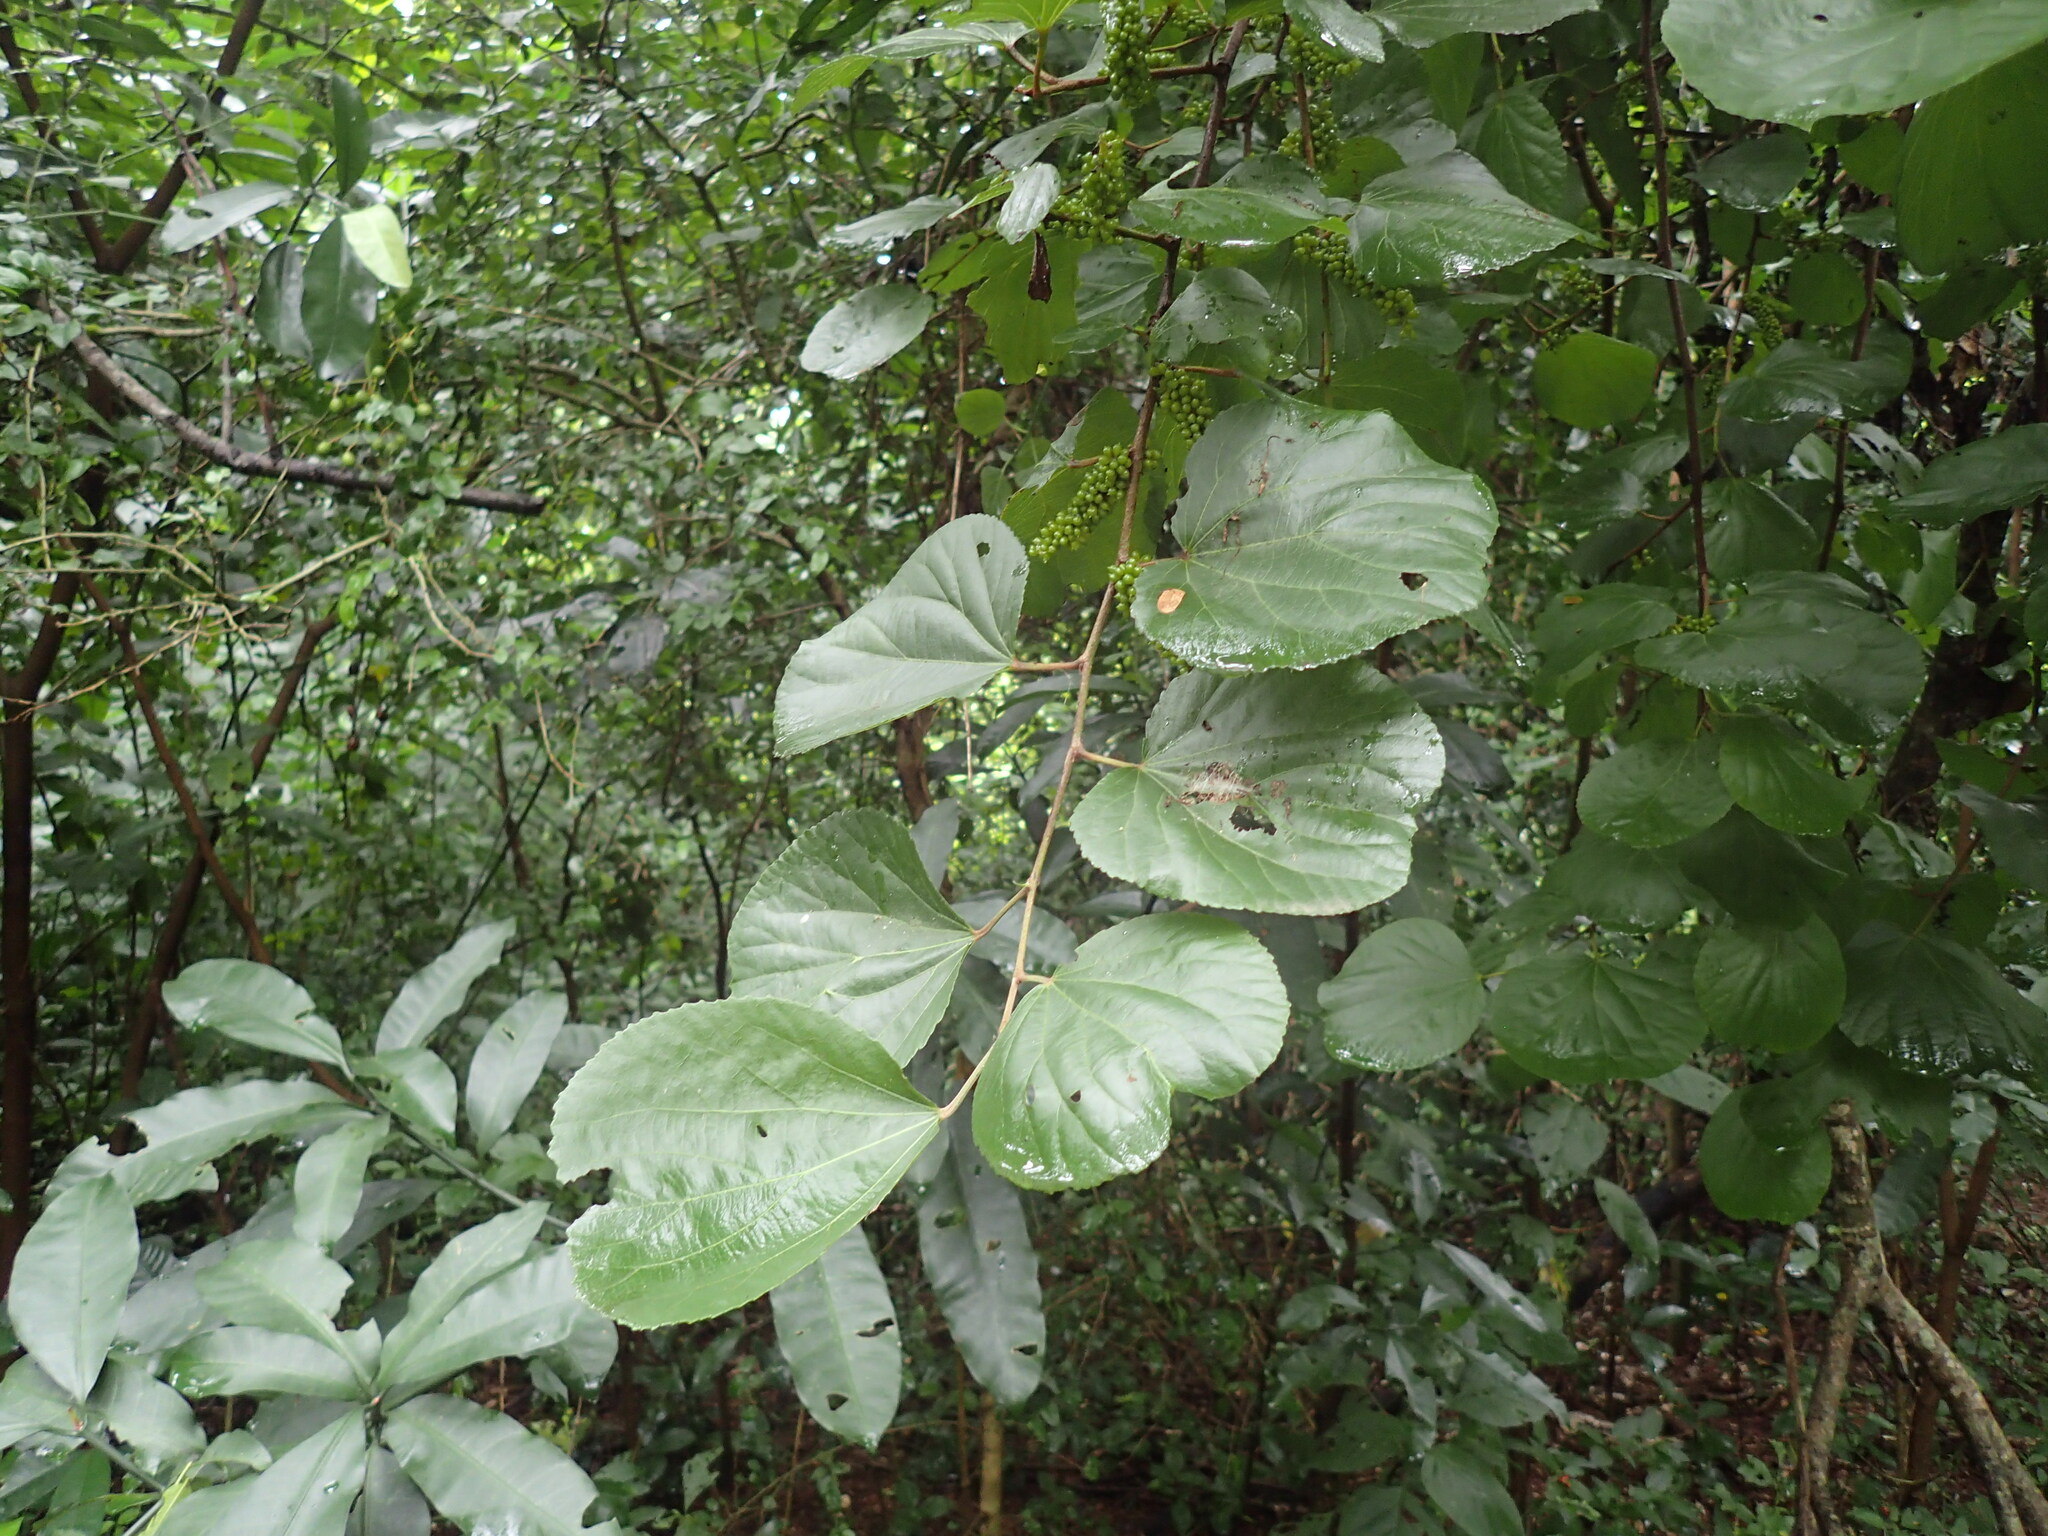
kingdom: Plantae
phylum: Tracheophyta
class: Magnoliopsida
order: Malpighiales
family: Salicaceae
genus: Trimeria
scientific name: Trimeria grandifolia
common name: Wild mulberry
